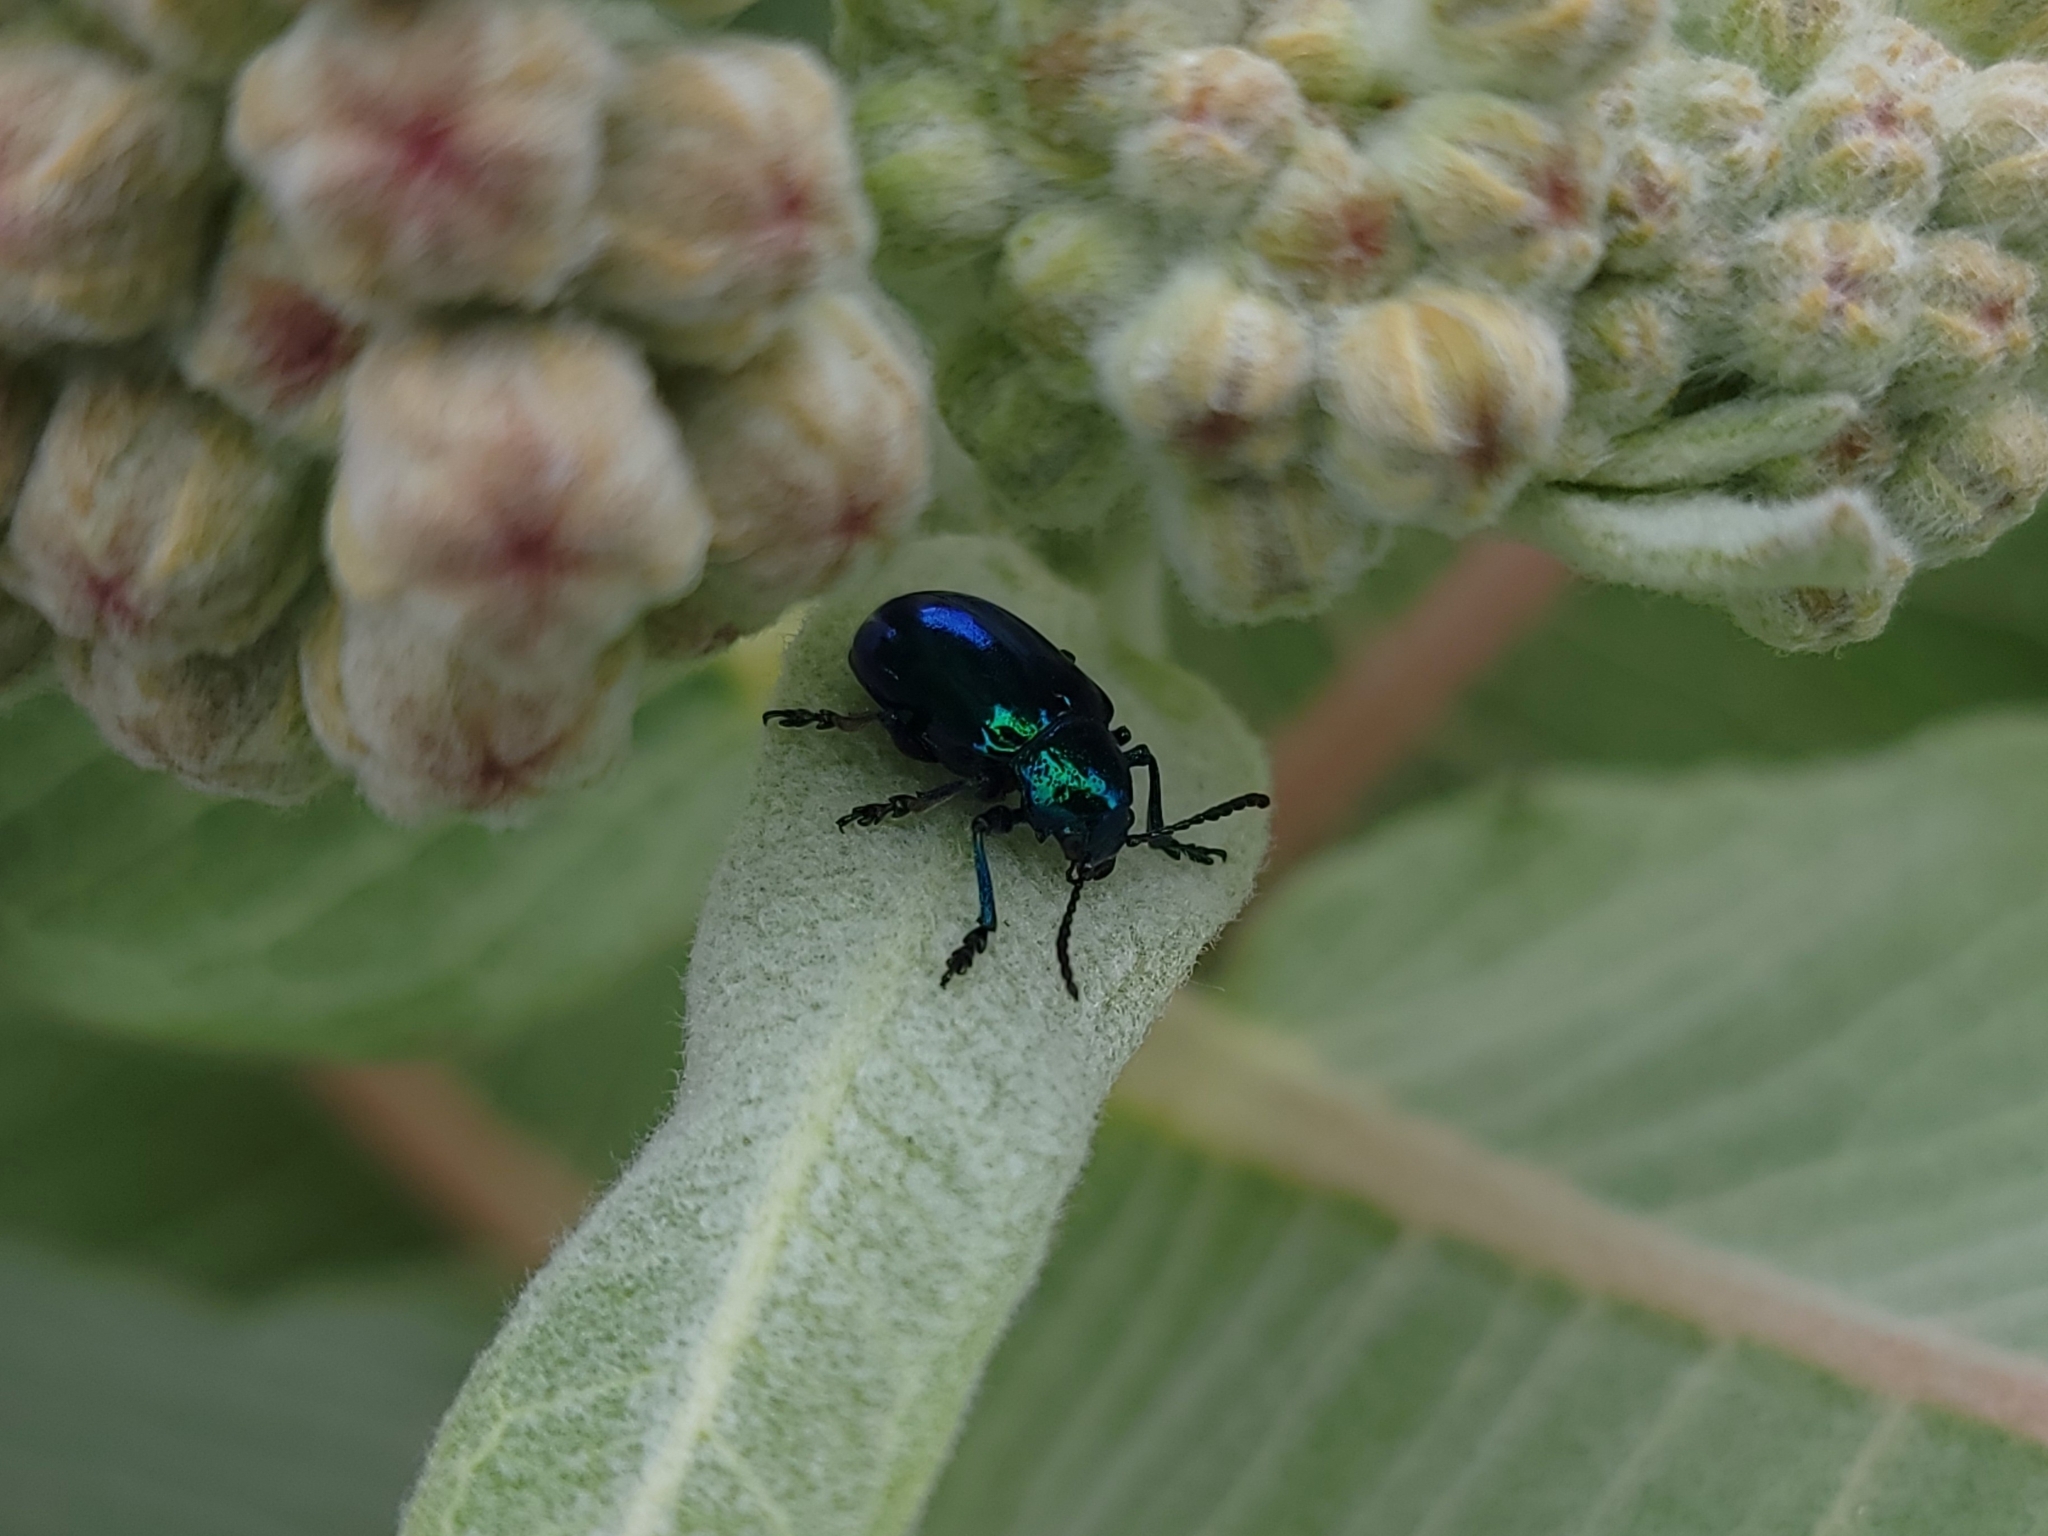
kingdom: Animalia
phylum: Arthropoda
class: Insecta
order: Coleoptera
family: Chrysomelidae
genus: Chrysochus
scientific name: Chrysochus cobaltinus
